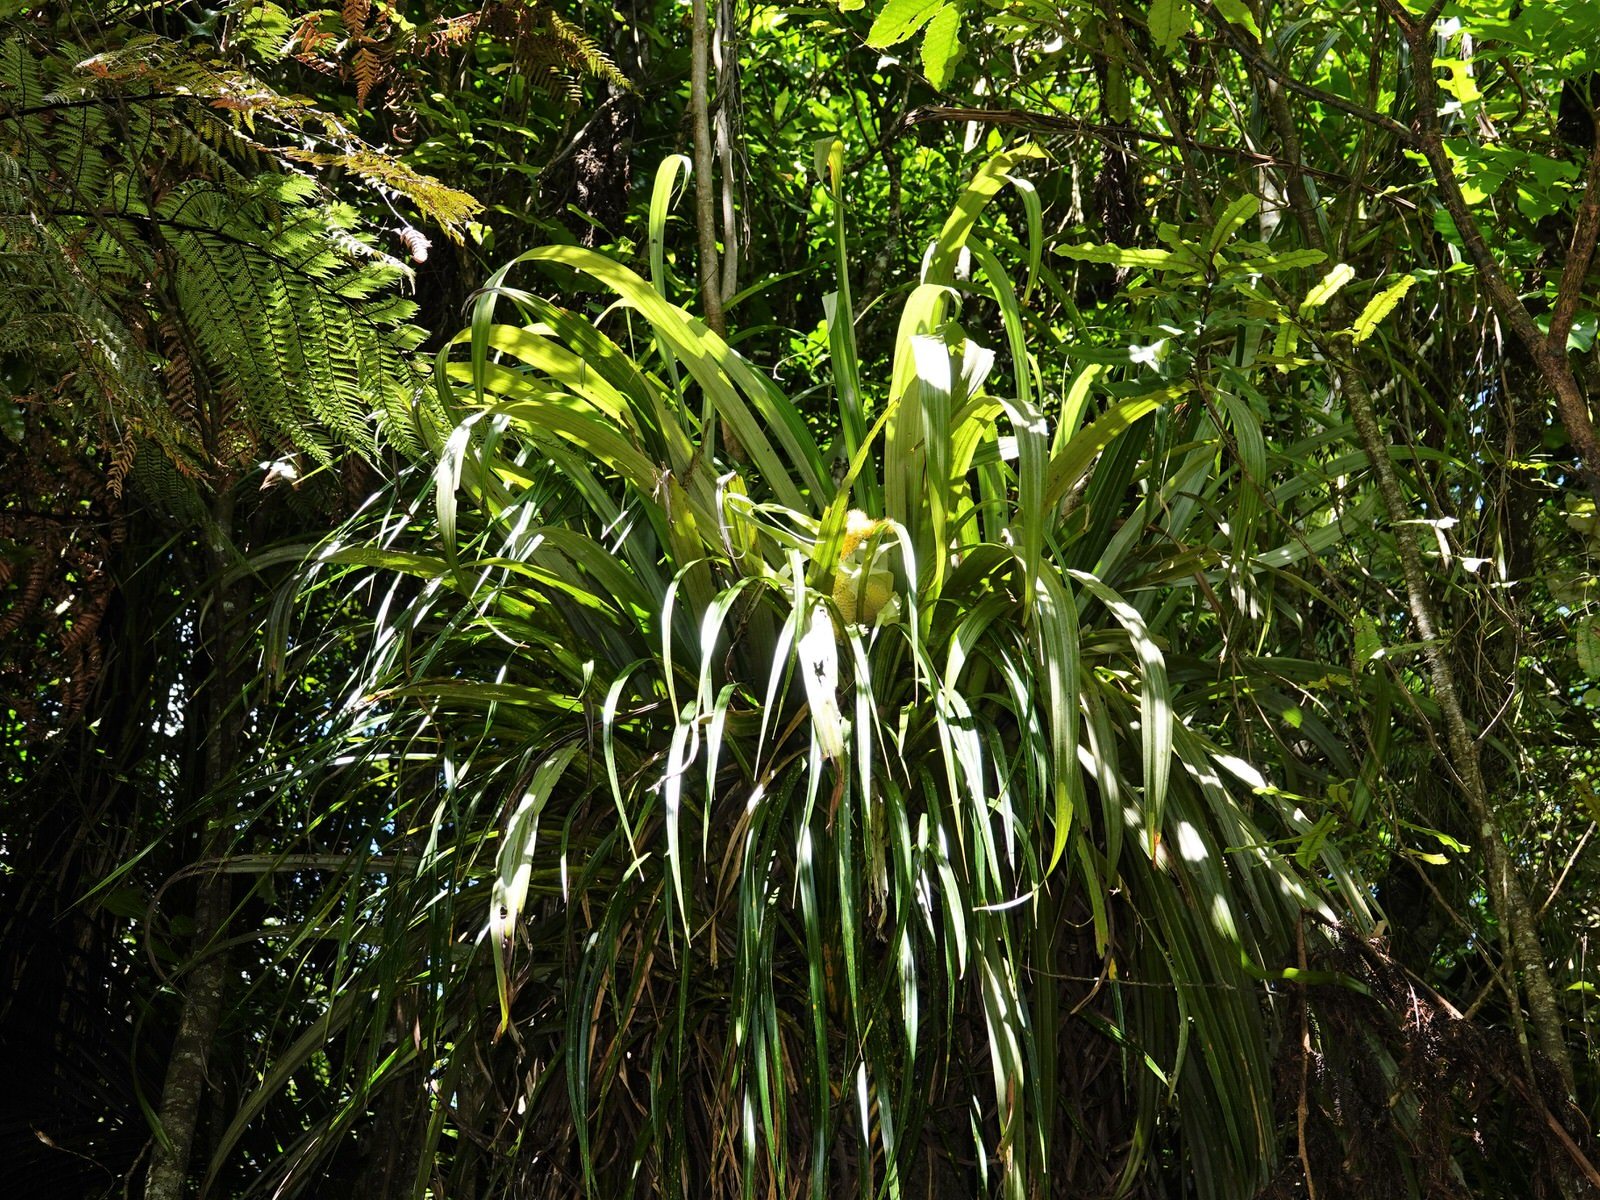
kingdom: Plantae
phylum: Tracheophyta
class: Liliopsida
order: Asparagales
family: Asteliaceae
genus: Astelia
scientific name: Astelia hastata
